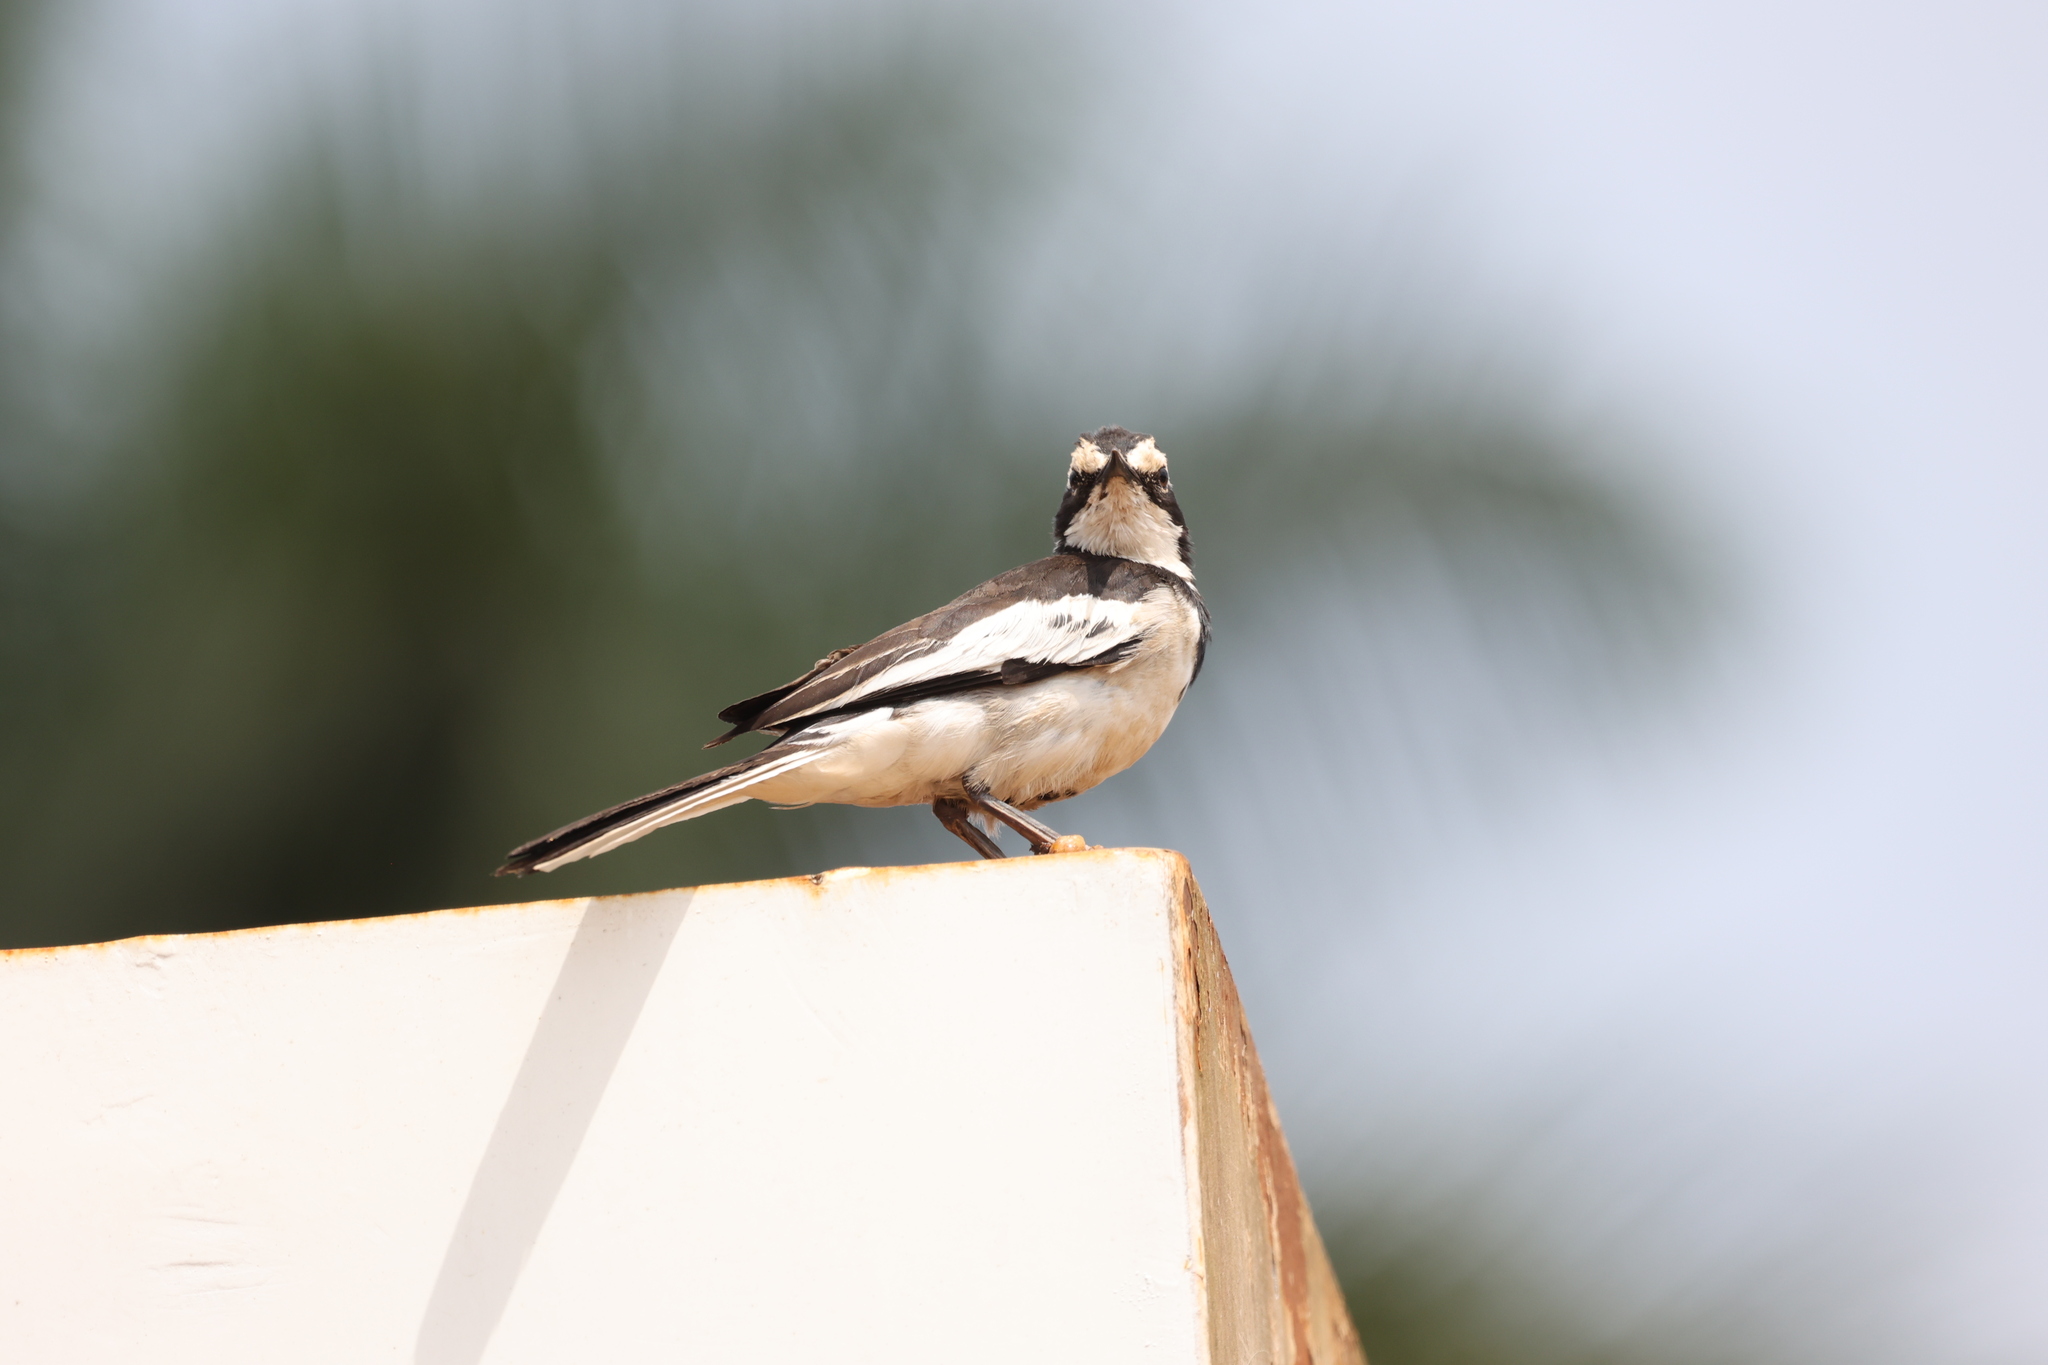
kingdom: Animalia
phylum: Chordata
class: Aves
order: Passeriformes
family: Motacillidae
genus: Motacilla
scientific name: Motacilla aguimp
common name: African pied wagtail
